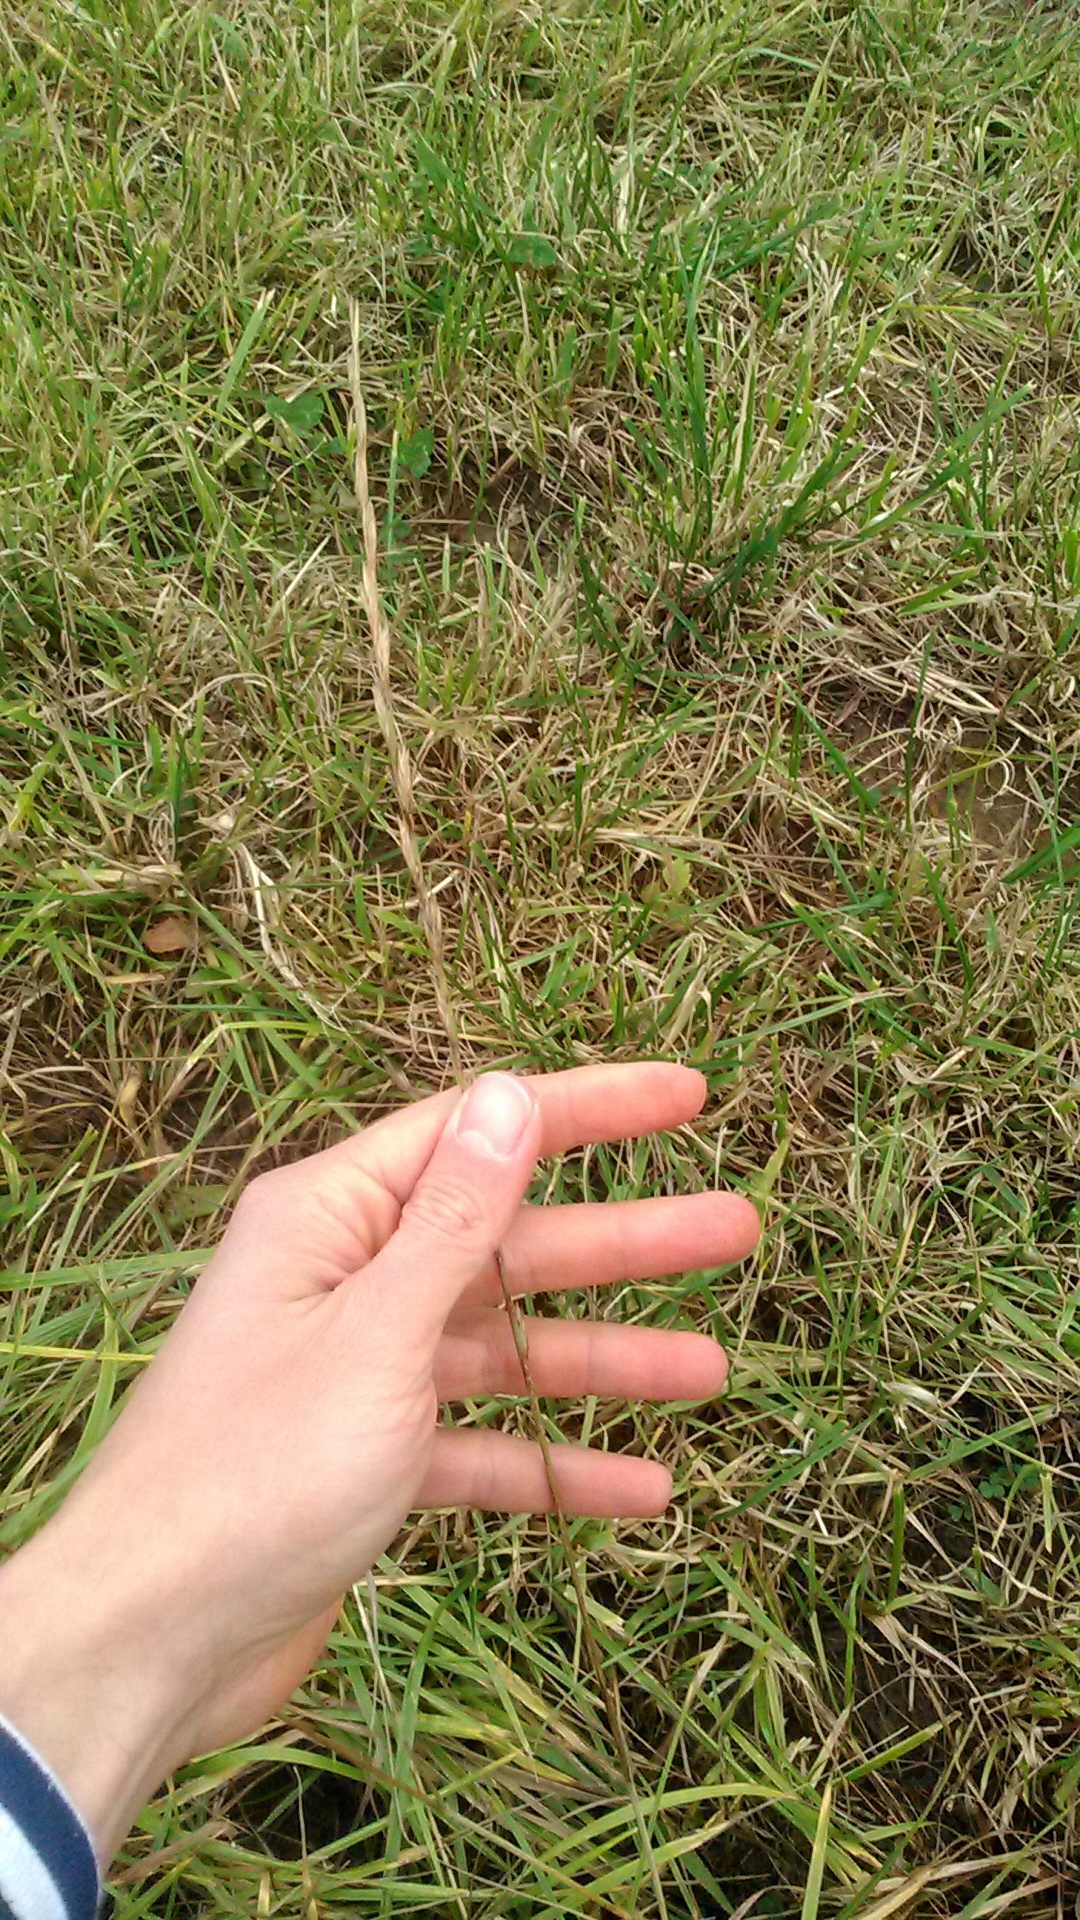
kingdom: Plantae
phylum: Tracheophyta
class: Liliopsida
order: Poales
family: Poaceae
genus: Lolium
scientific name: Lolium perenne
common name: Perennial ryegrass
